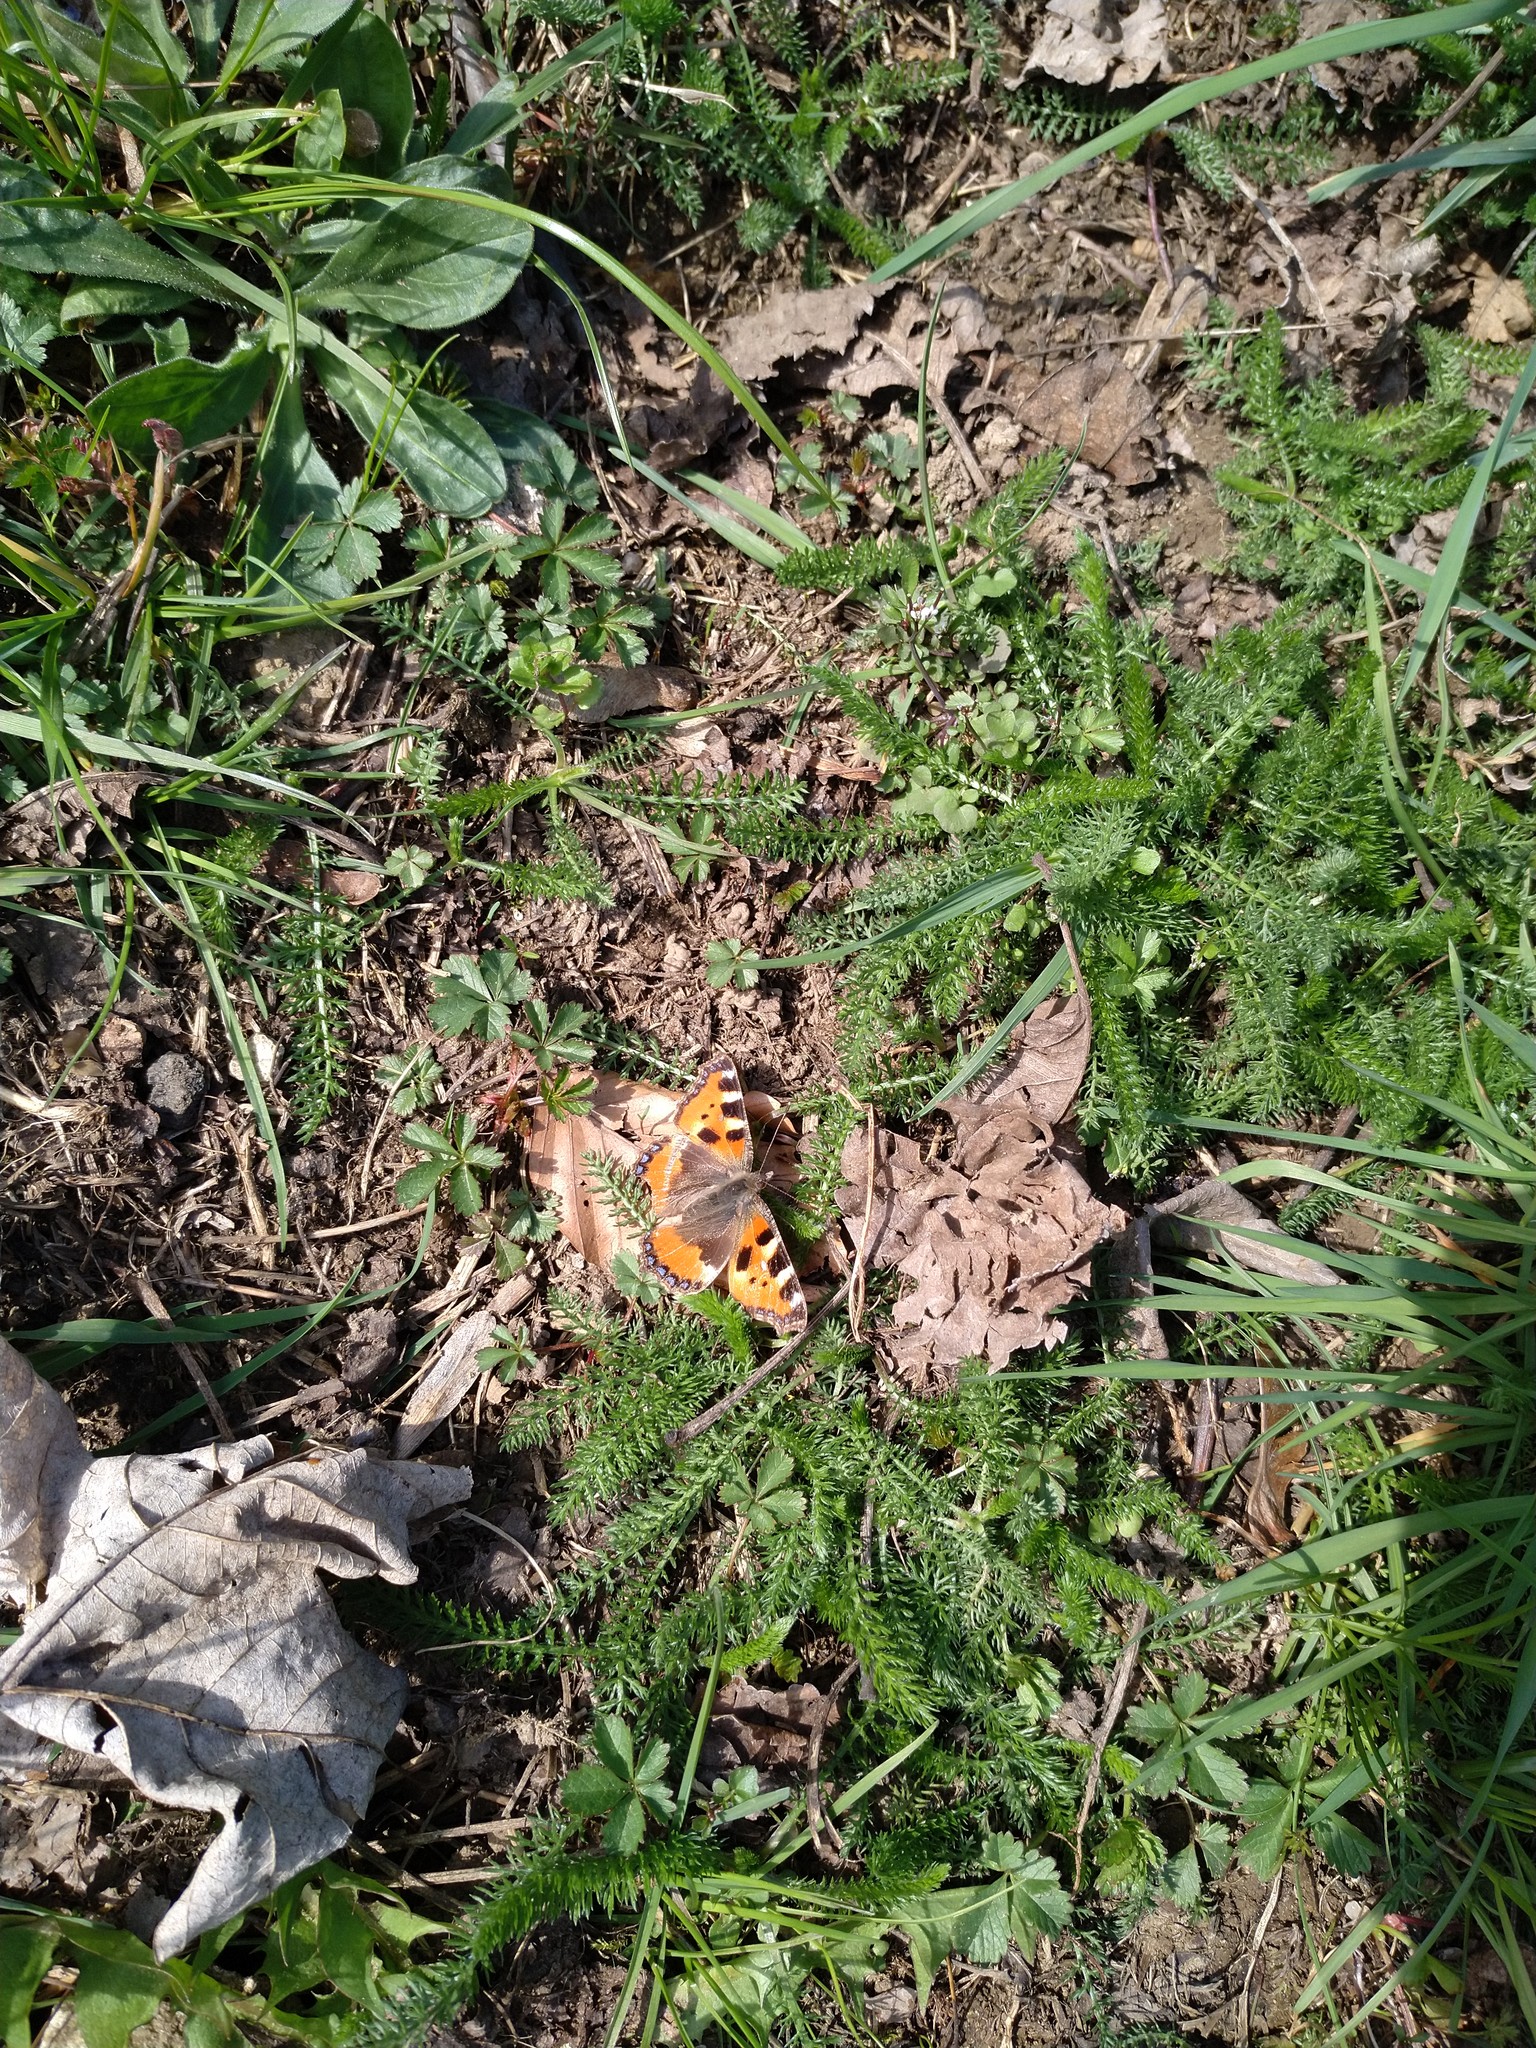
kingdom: Animalia
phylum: Arthropoda
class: Insecta
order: Lepidoptera
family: Nymphalidae
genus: Aglais
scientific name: Aglais urticae
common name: Small tortoiseshell
